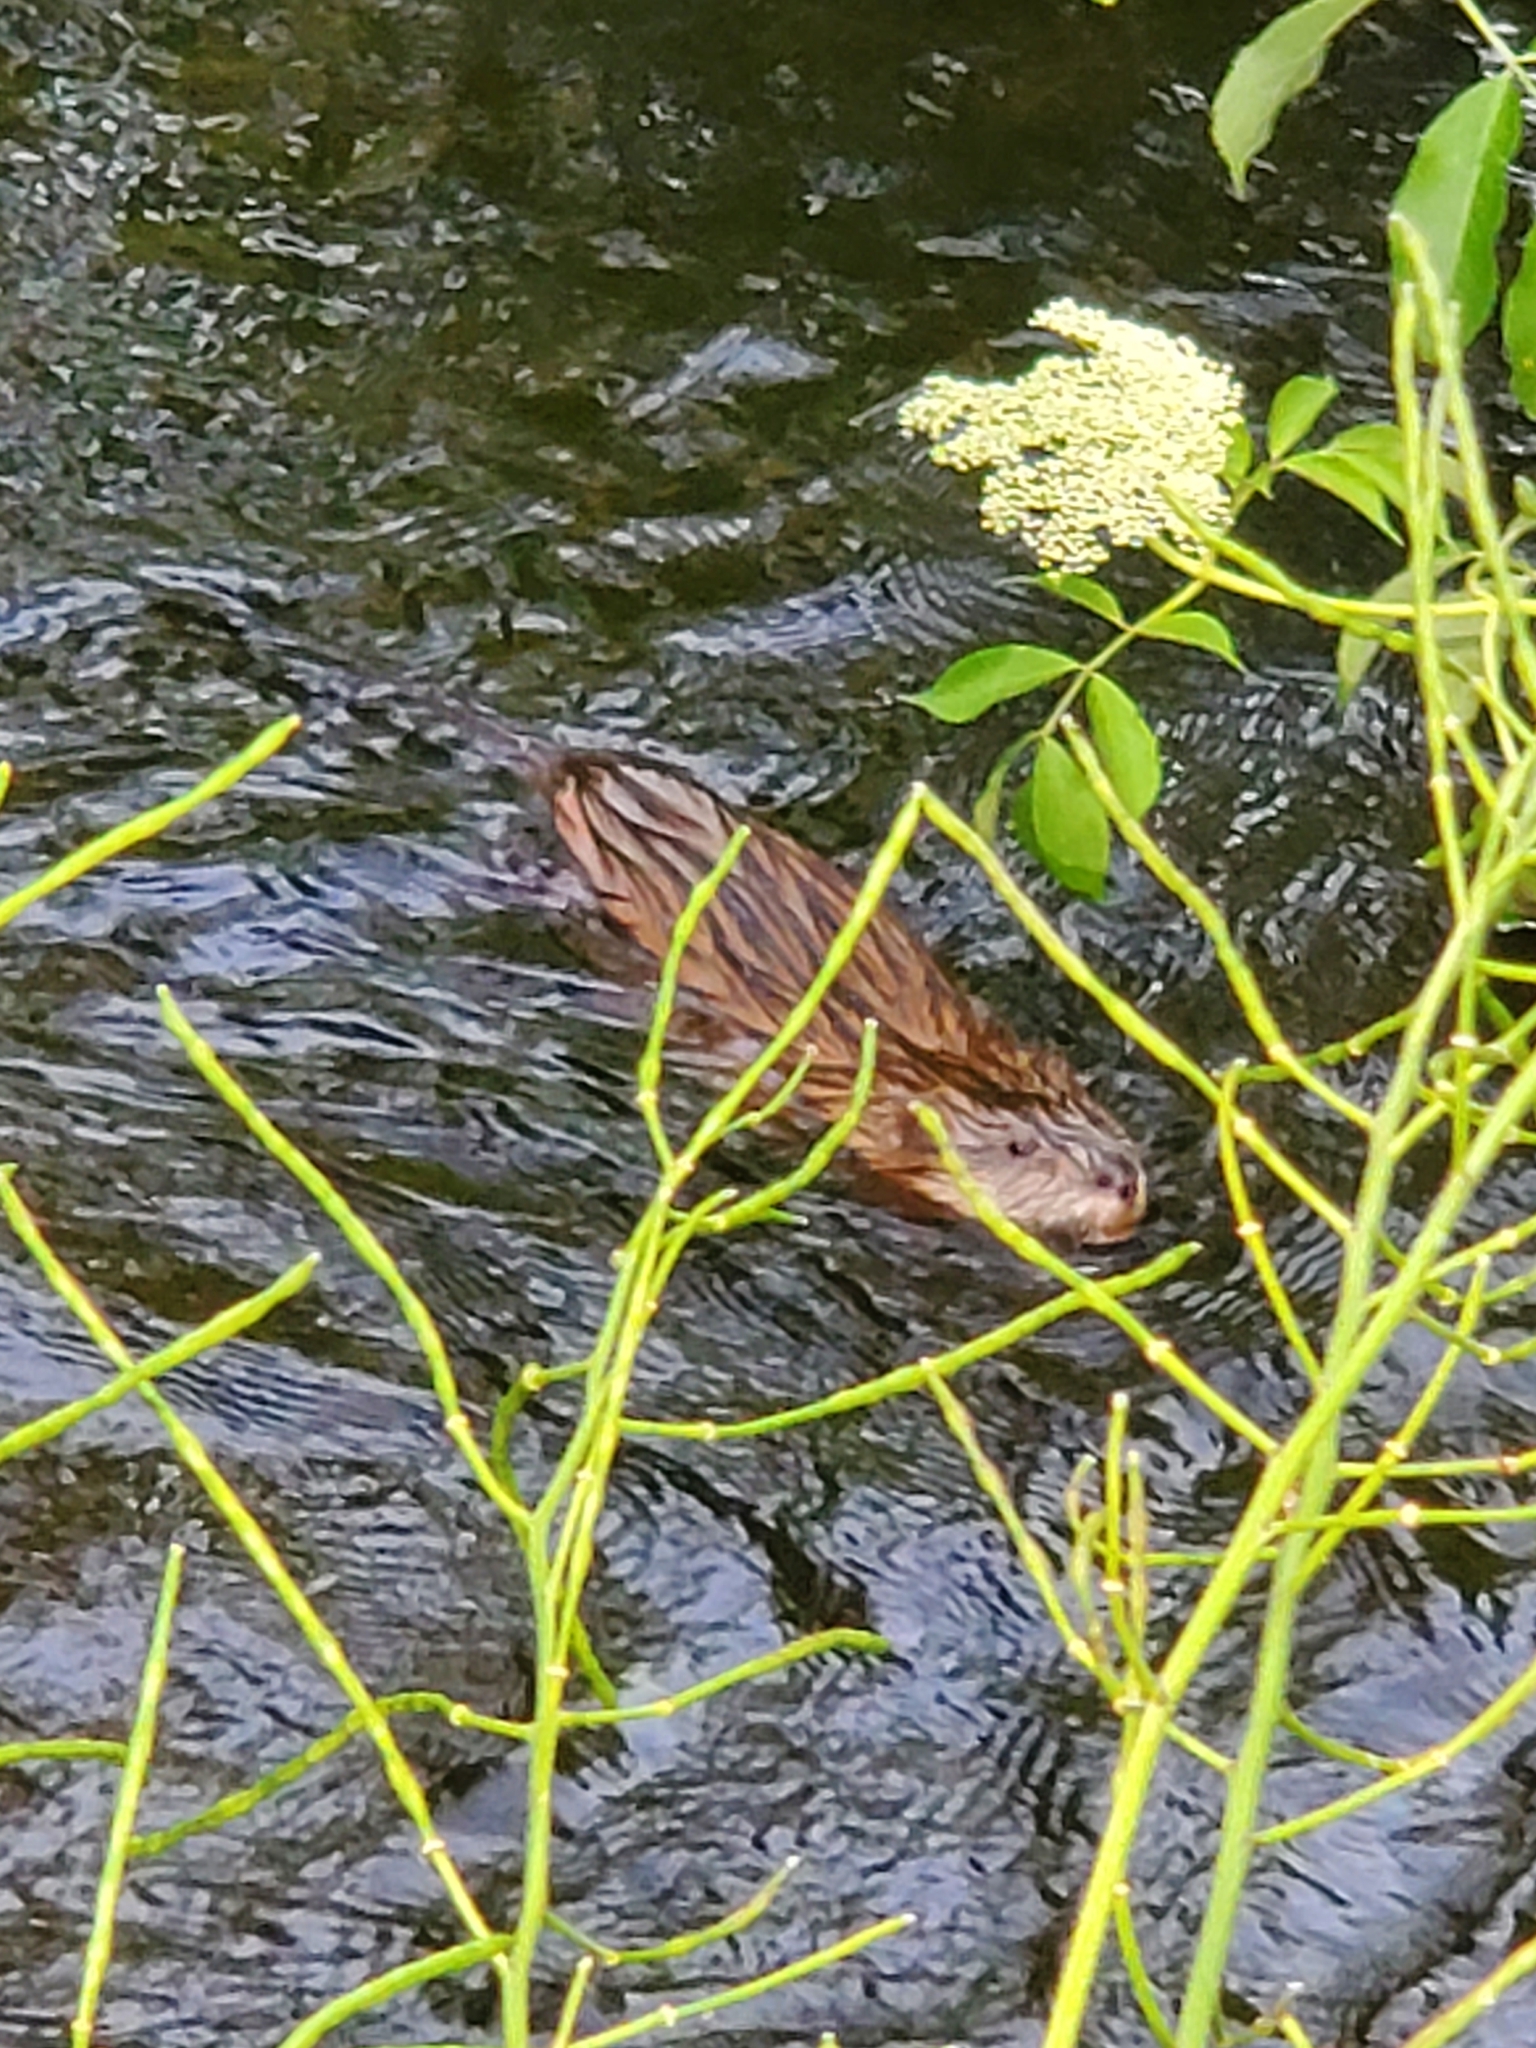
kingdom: Animalia
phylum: Chordata
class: Mammalia
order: Rodentia
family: Cricetidae
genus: Ondatra
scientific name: Ondatra zibethicus
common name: Muskrat
